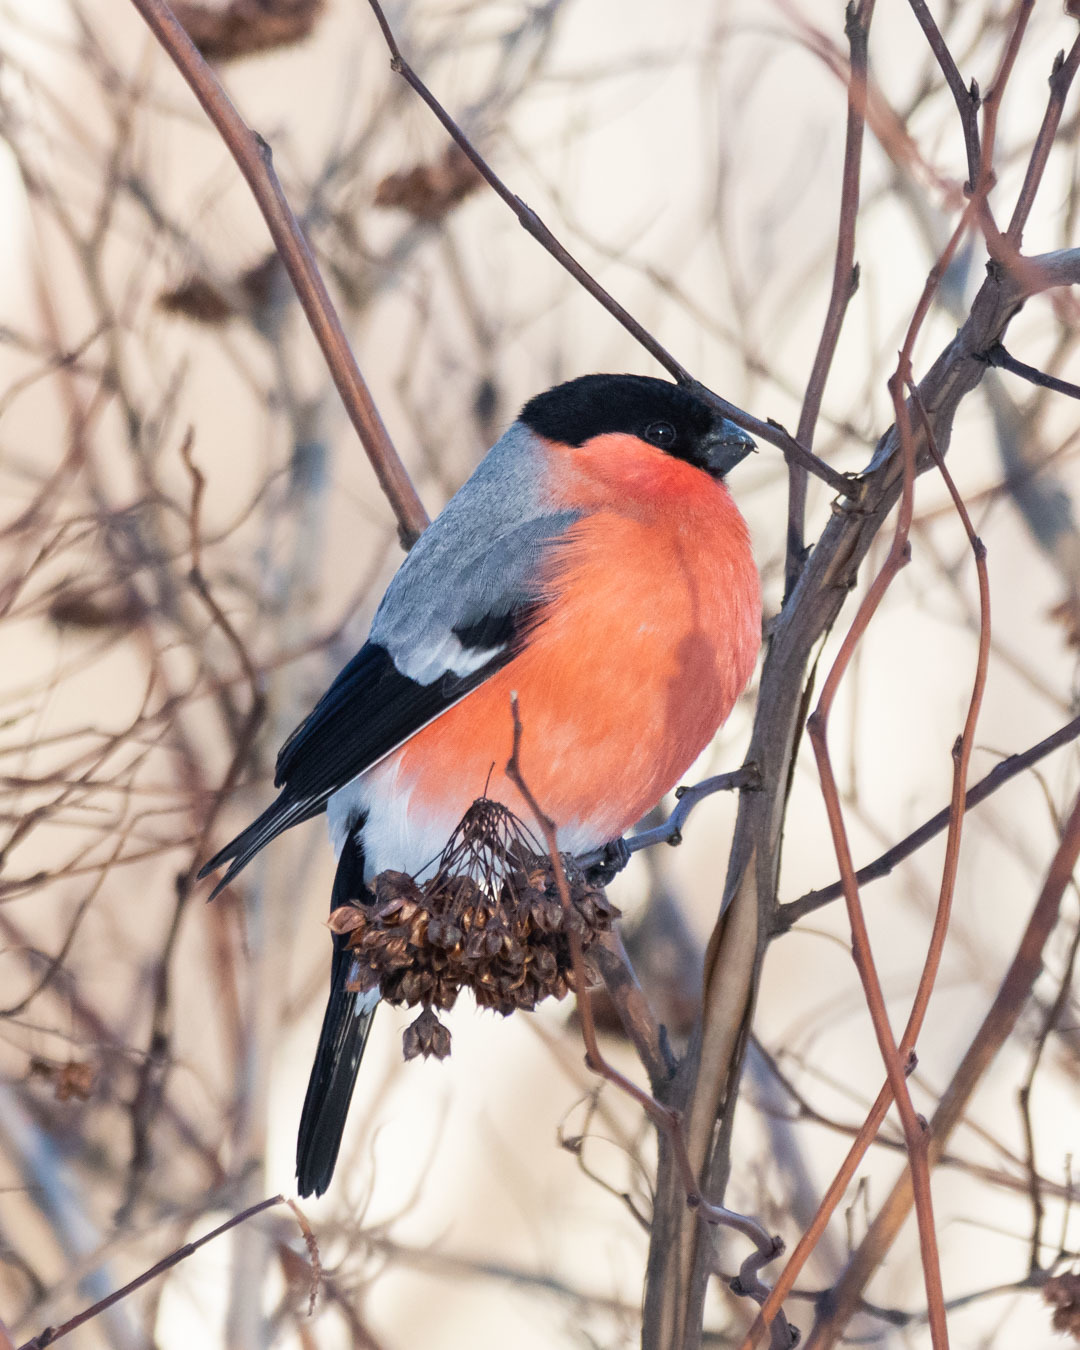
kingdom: Animalia
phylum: Chordata
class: Aves
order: Passeriformes
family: Fringillidae
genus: Pyrrhula
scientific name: Pyrrhula pyrrhula
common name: Eurasian bullfinch
